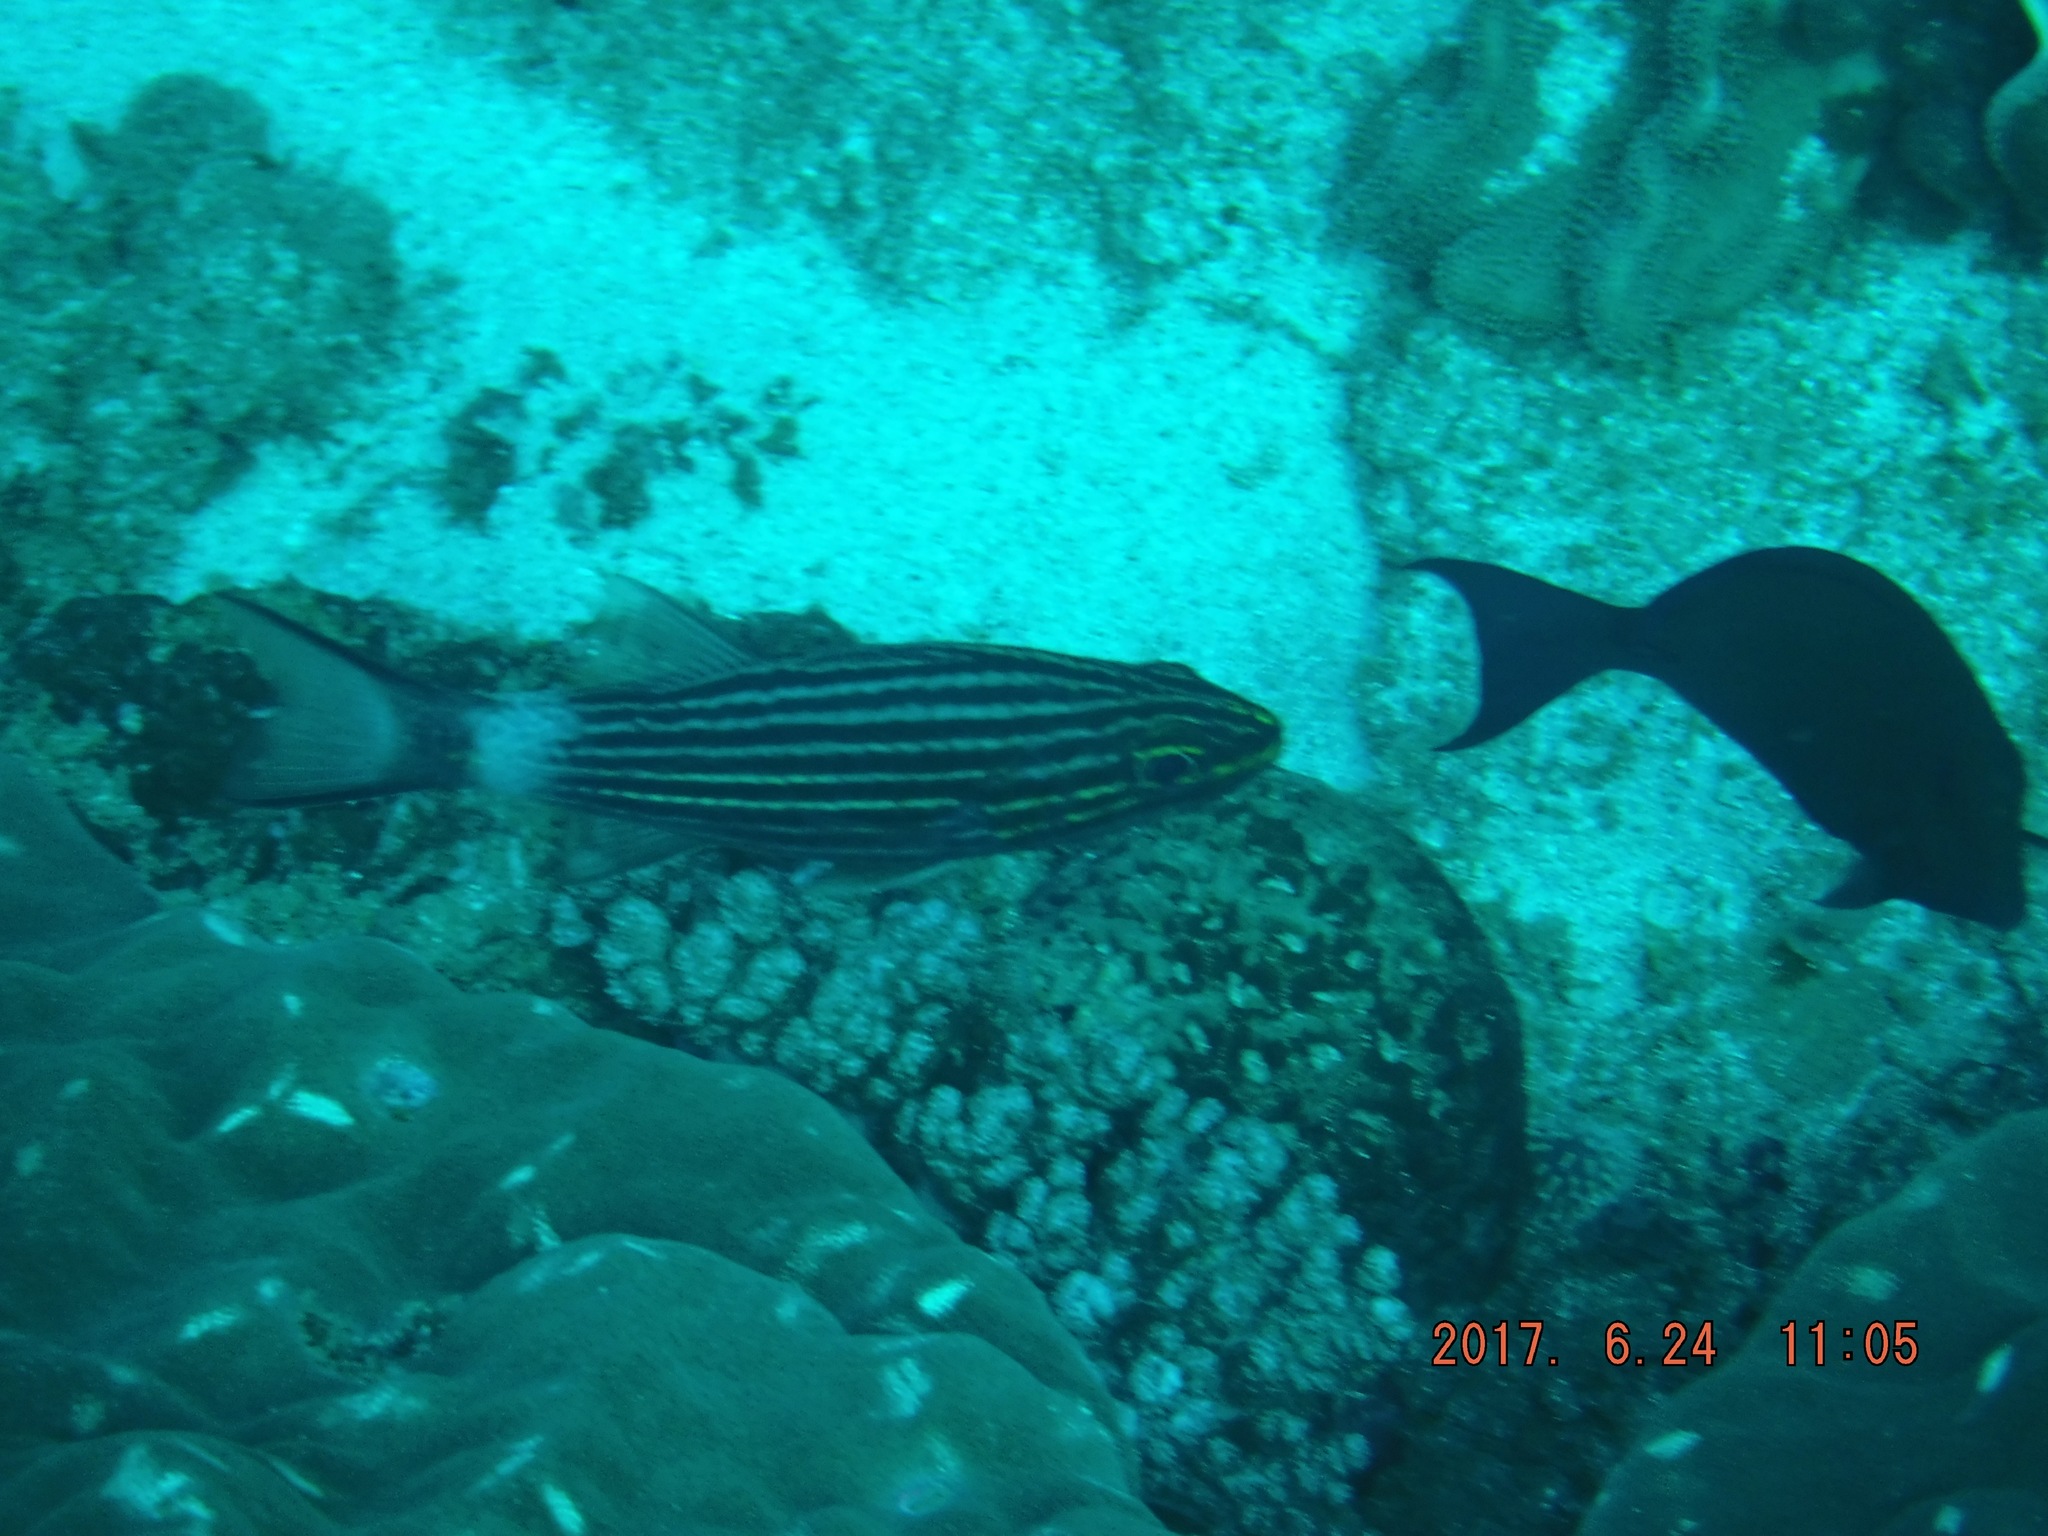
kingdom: Animalia
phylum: Chordata
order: Perciformes
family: Apogonidae
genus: Cheilodipterus
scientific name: Cheilodipterus macrodon
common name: Eight-lined cardinalfish
